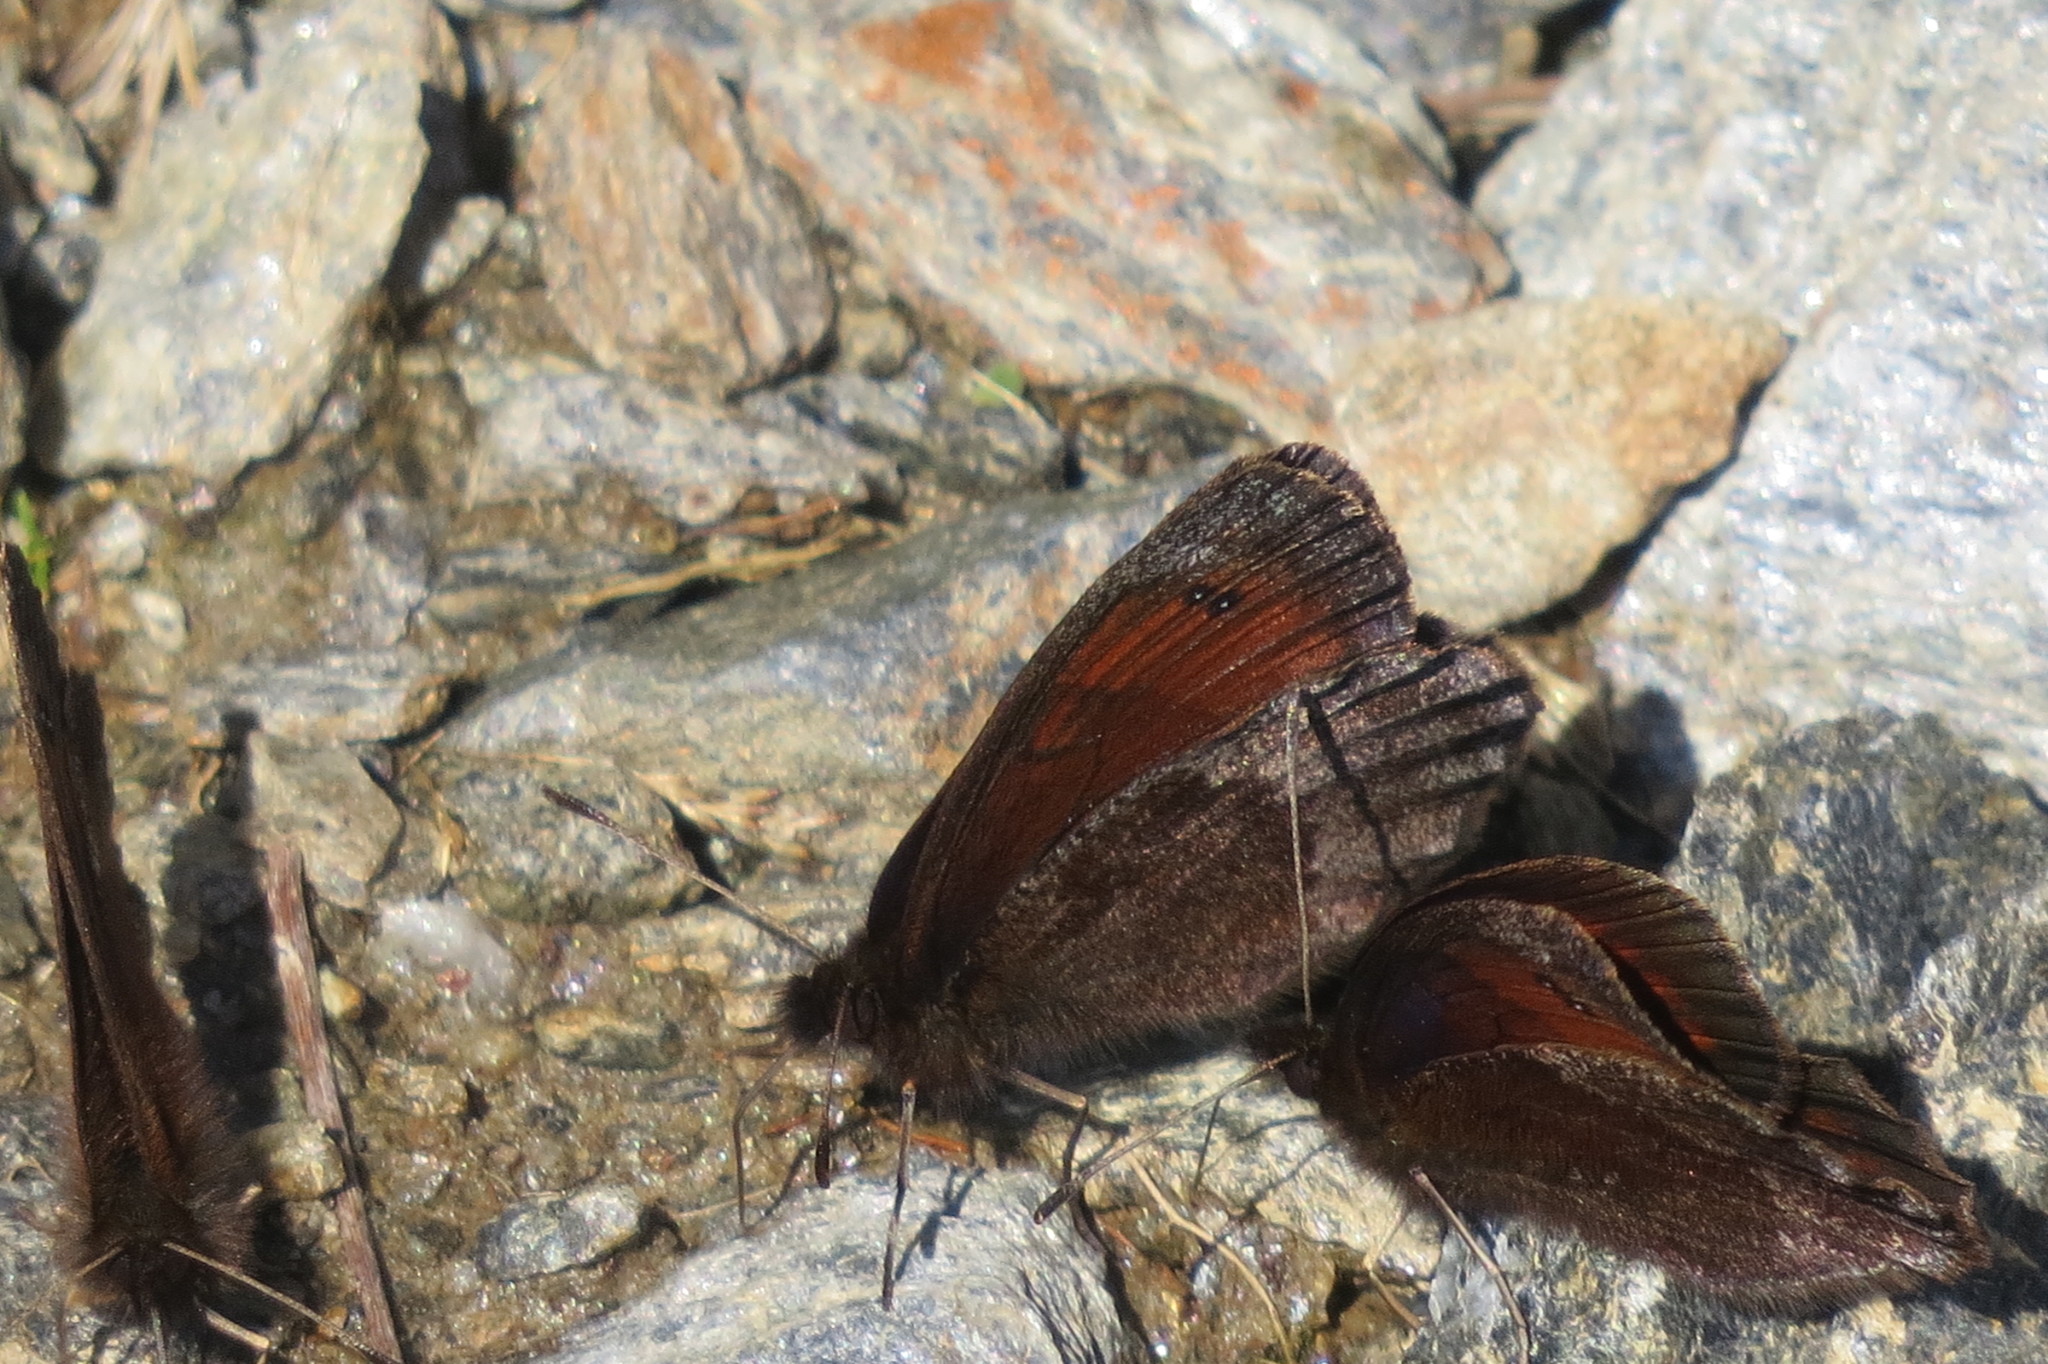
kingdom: Animalia
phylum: Arthropoda
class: Insecta
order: Lepidoptera
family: Nymphalidae
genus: Erebia
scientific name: Erebia pronoe
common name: Water ringlet
